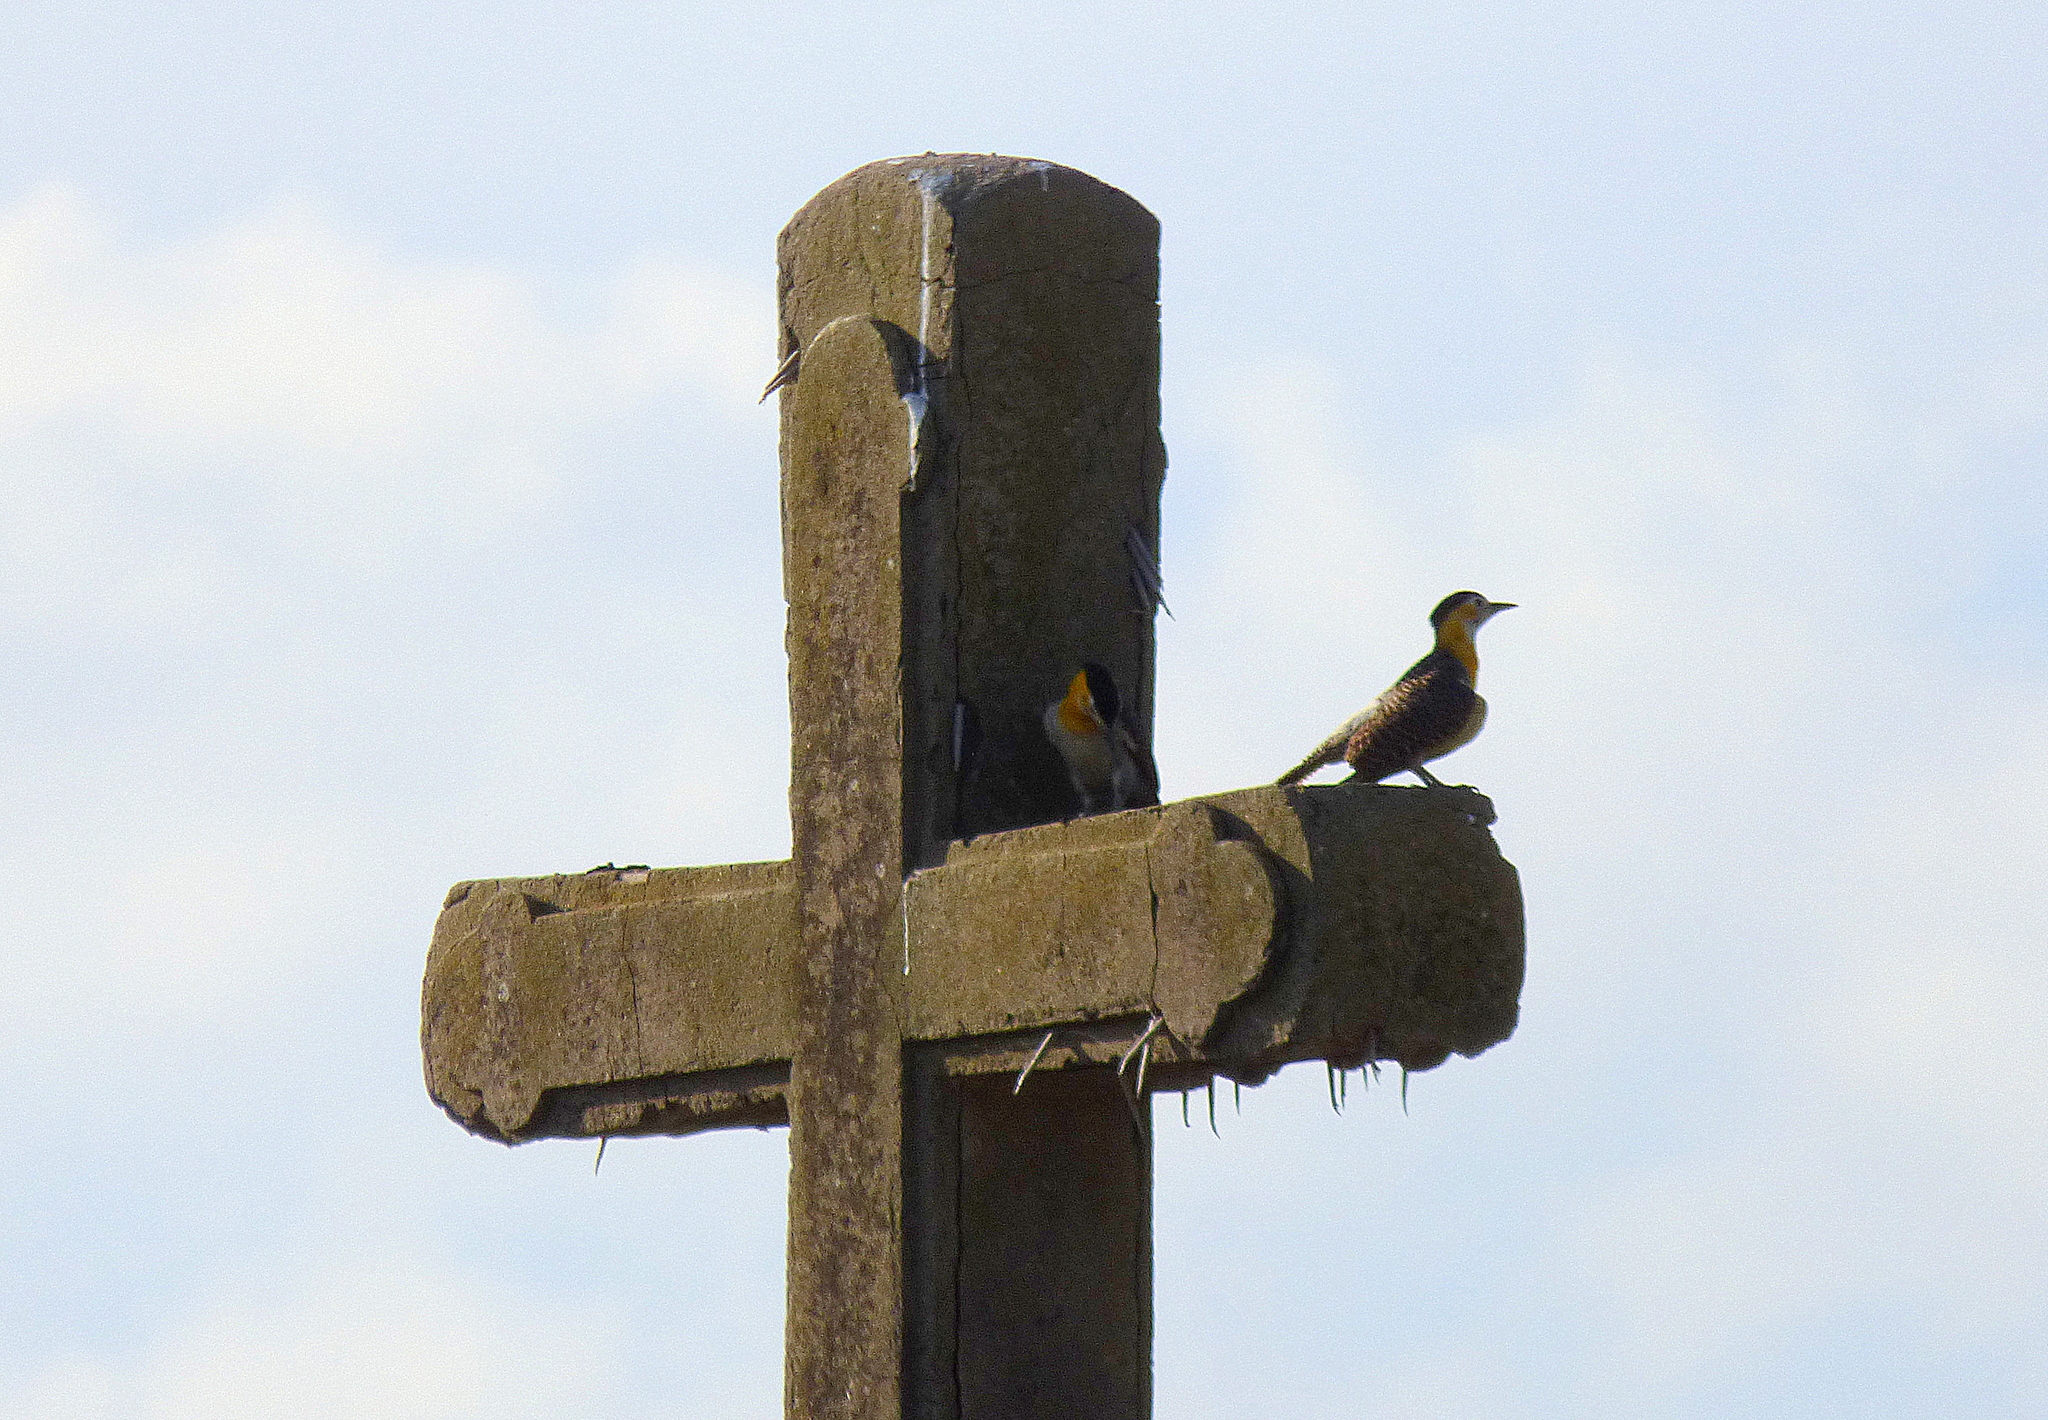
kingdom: Animalia
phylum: Chordata
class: Aves
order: Piciformes
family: Picidae
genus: Colaptes
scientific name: Colaptes campestris
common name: Campo flicker
